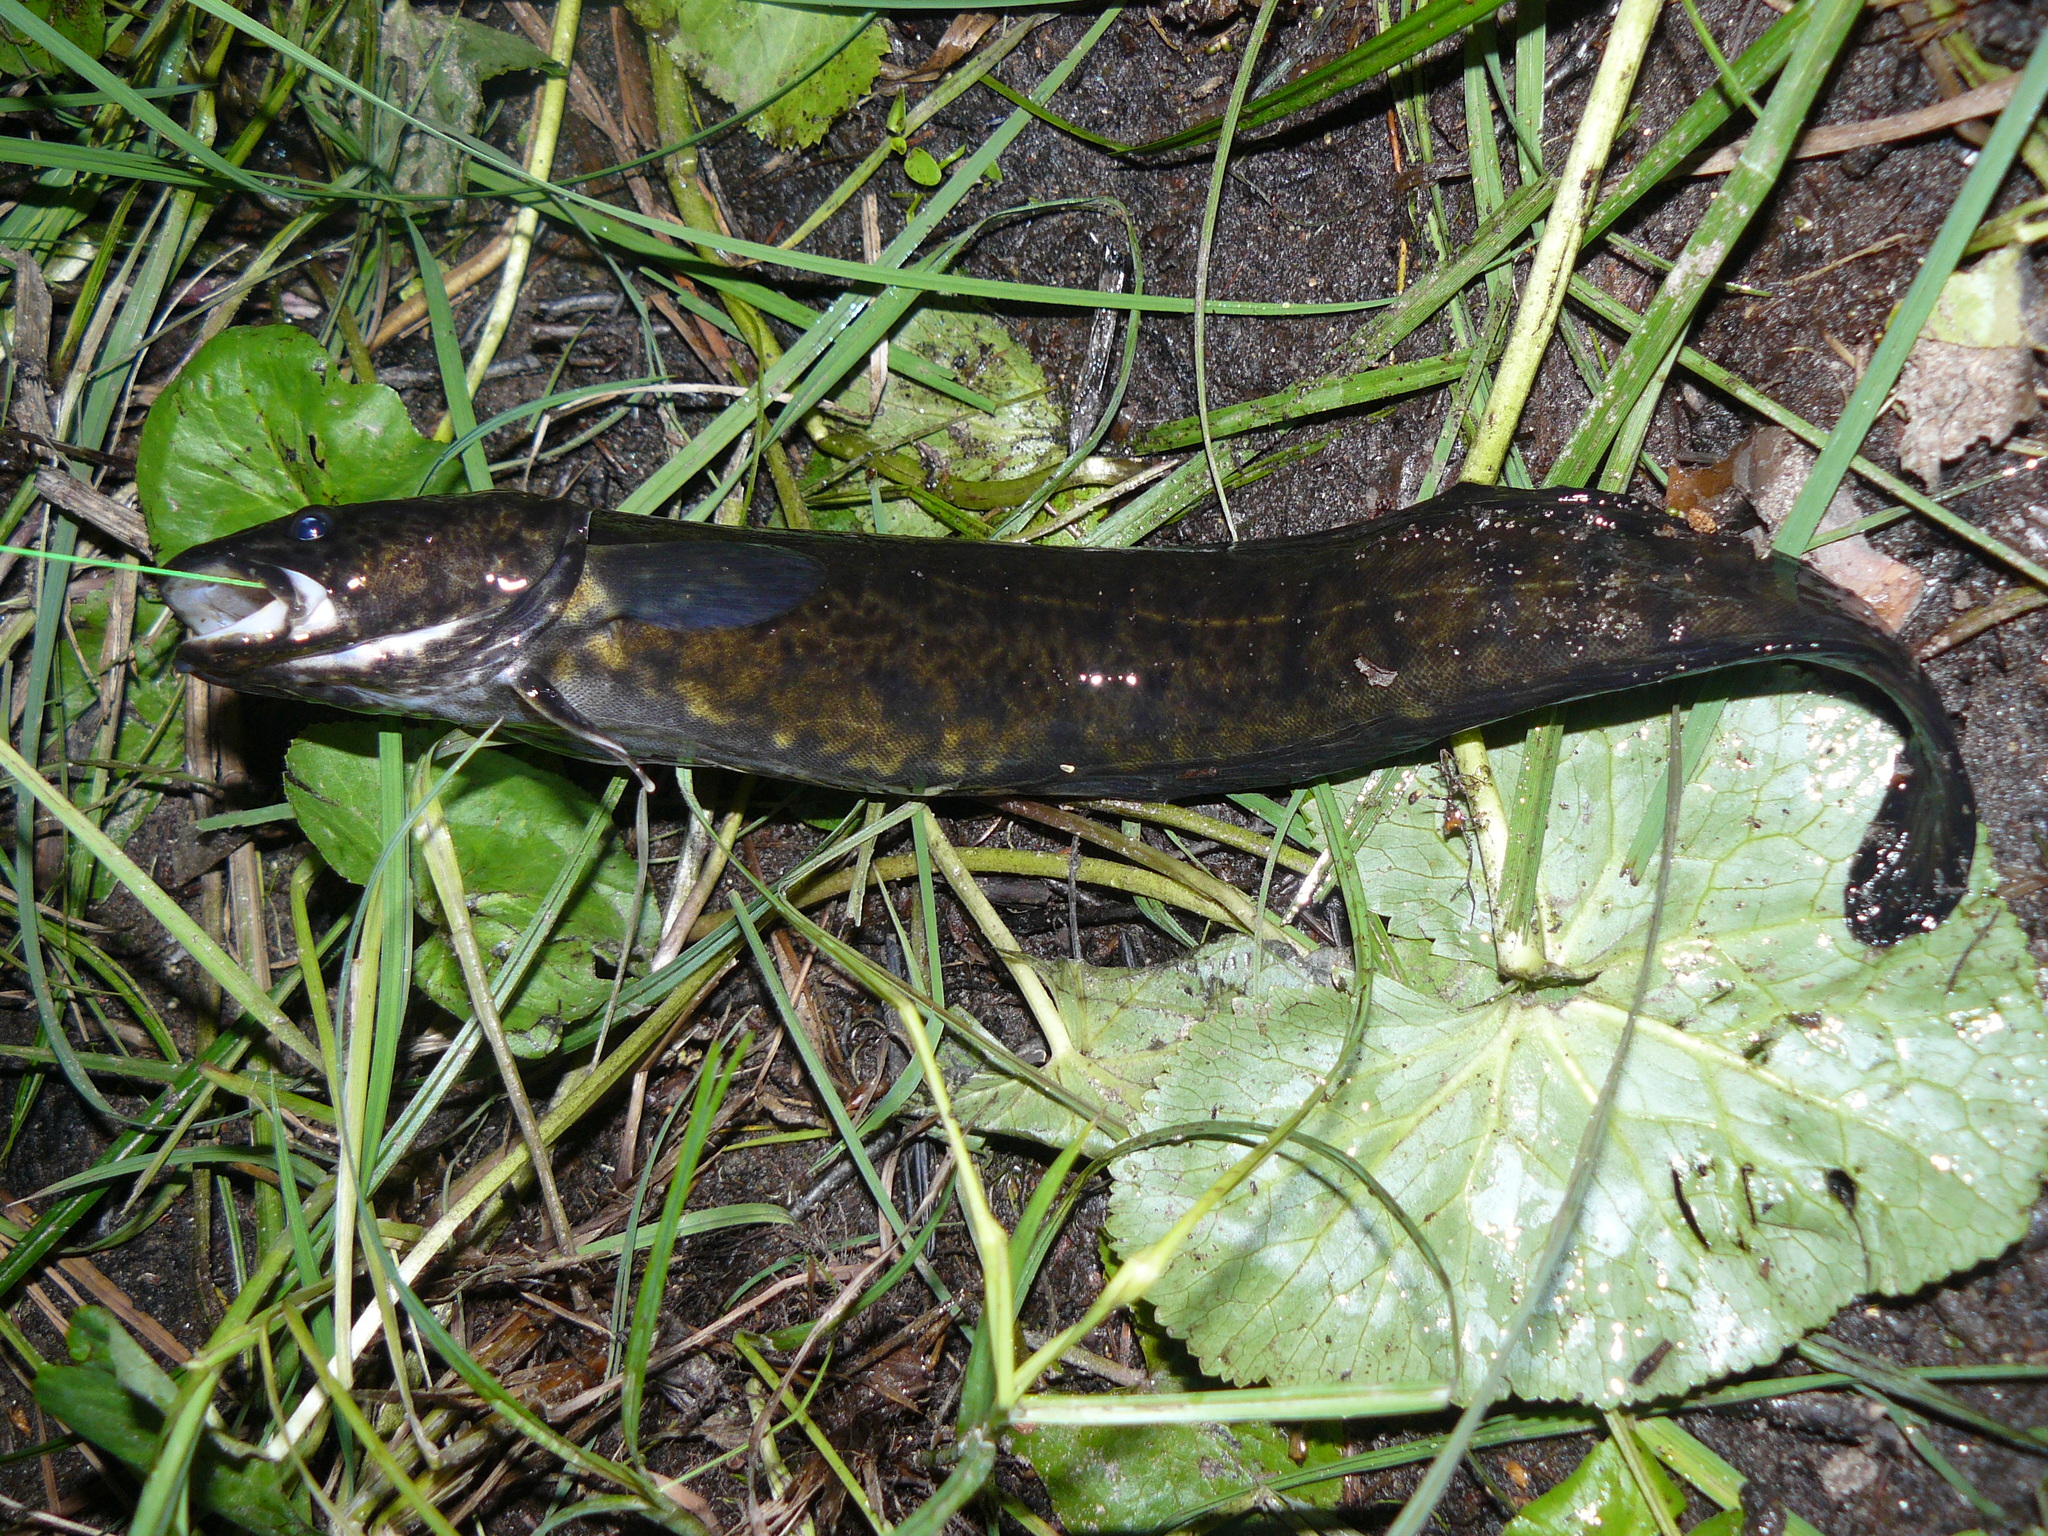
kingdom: Animalia
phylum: Chordata
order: Gadiformes
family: Lotidae
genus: Lota
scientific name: Lota lota
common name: Burbot
